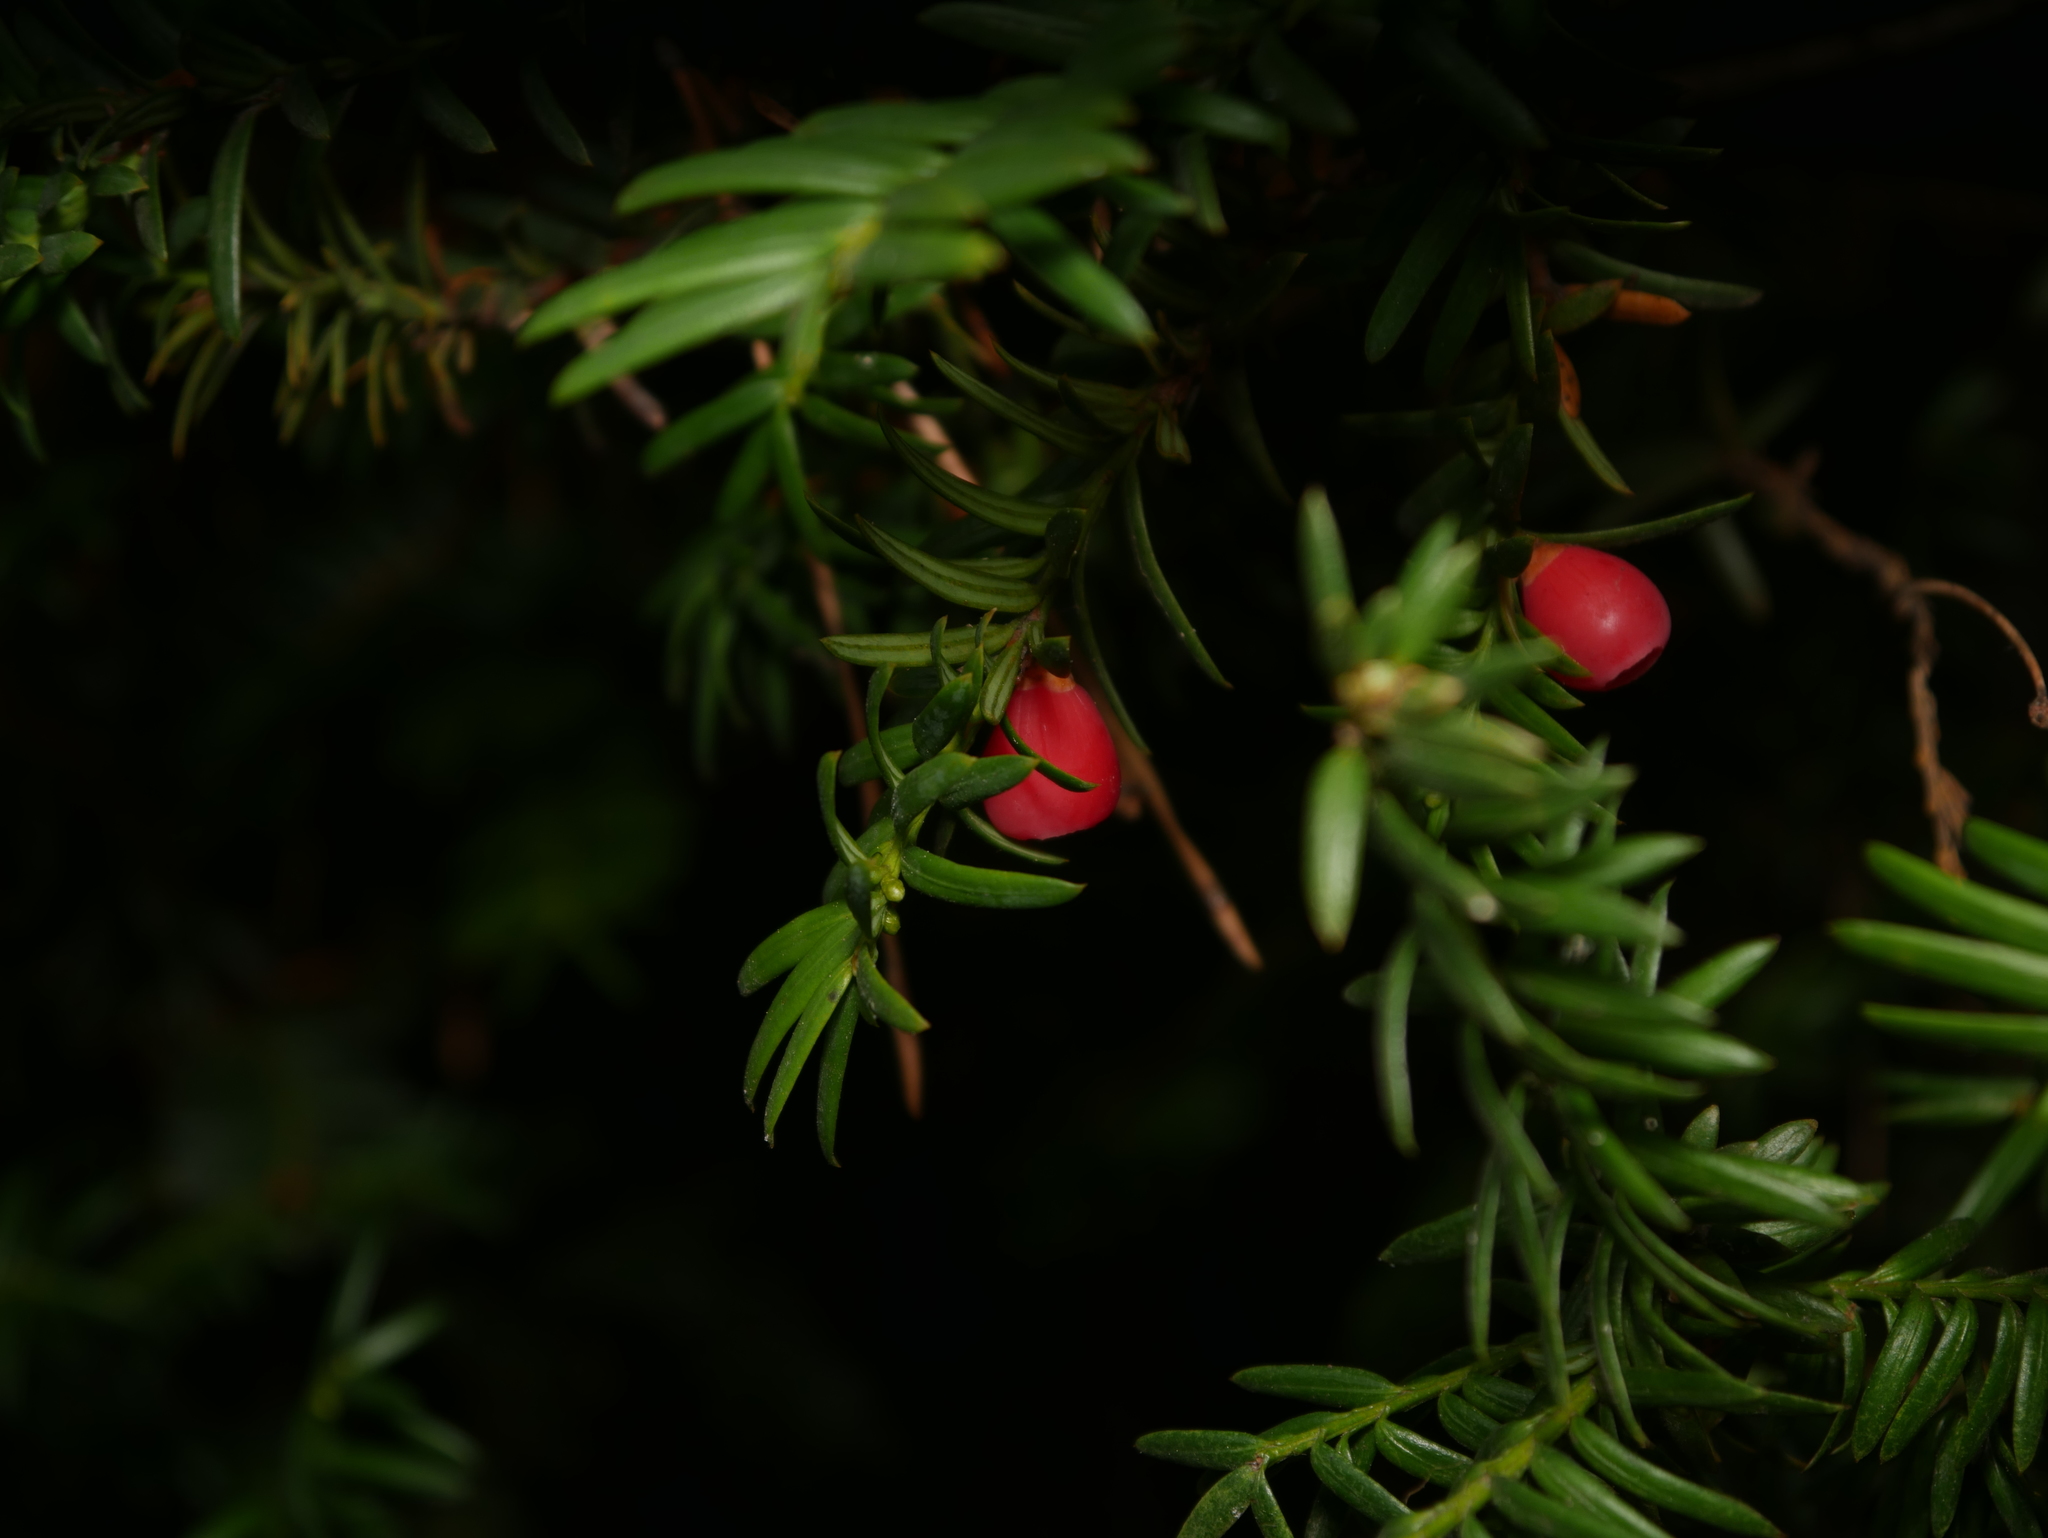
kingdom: Plantae
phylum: Tracheophyta
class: Pinopsida
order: Pinales
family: Taxaceae
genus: Taxus
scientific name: Taxus baccata
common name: Yew
